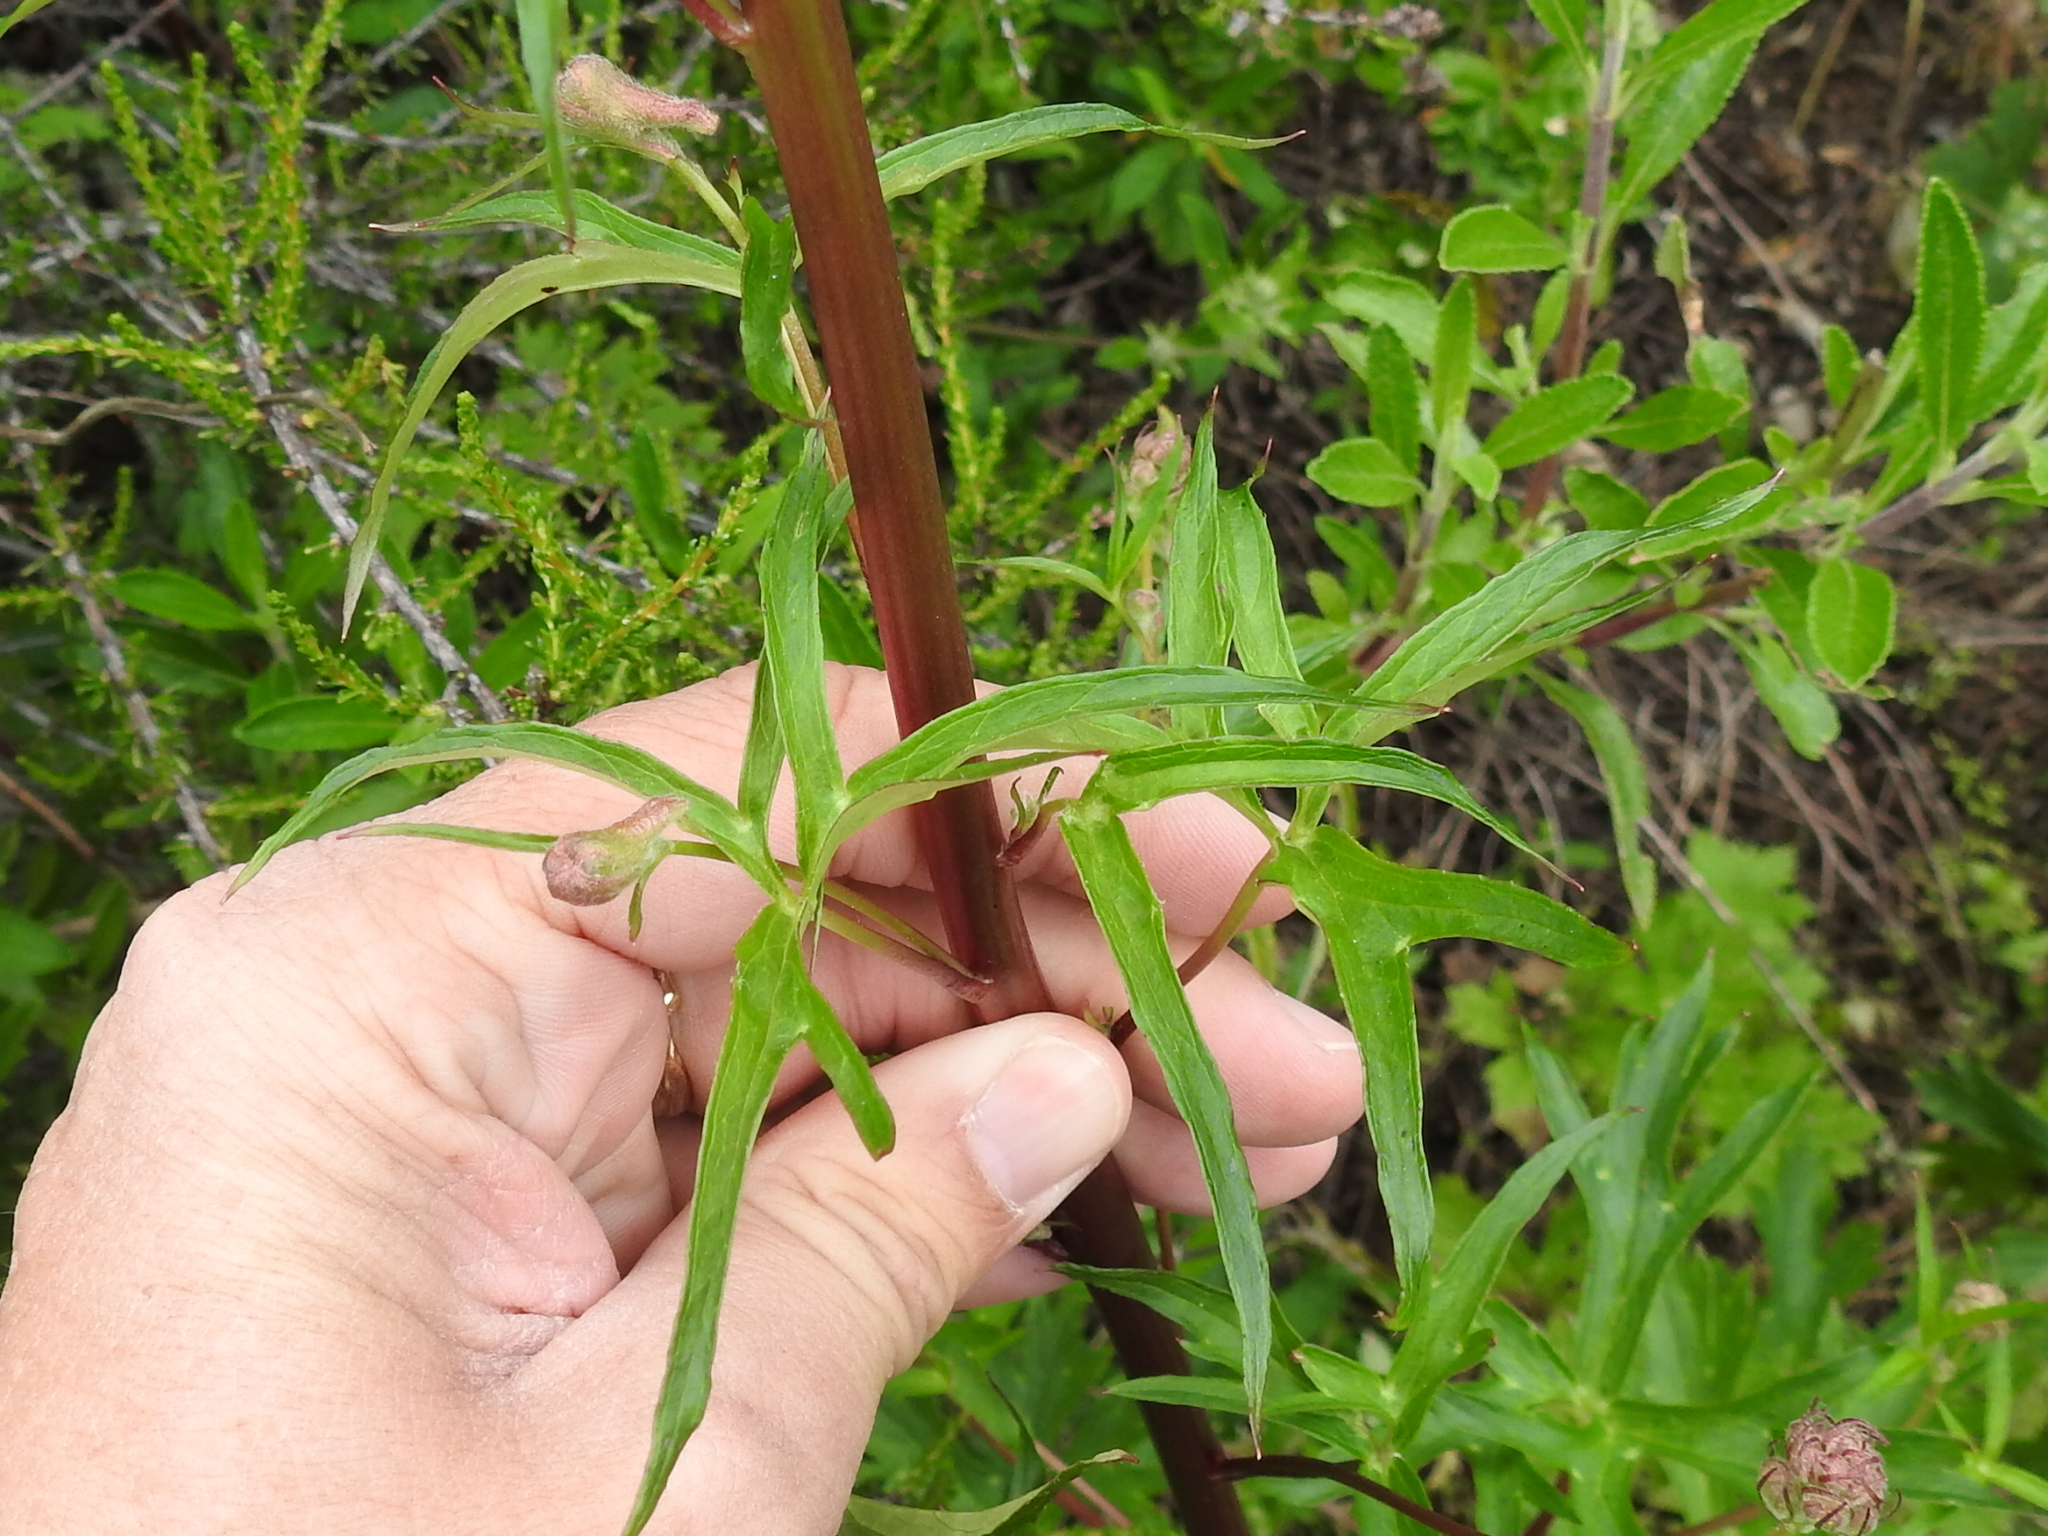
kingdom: Plantae
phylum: Tracheophyta
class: Magnoliopsida
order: Ranunculales
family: Ranunculaceae
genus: Delphinium
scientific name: Delphinium californicum
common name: California larkspur
